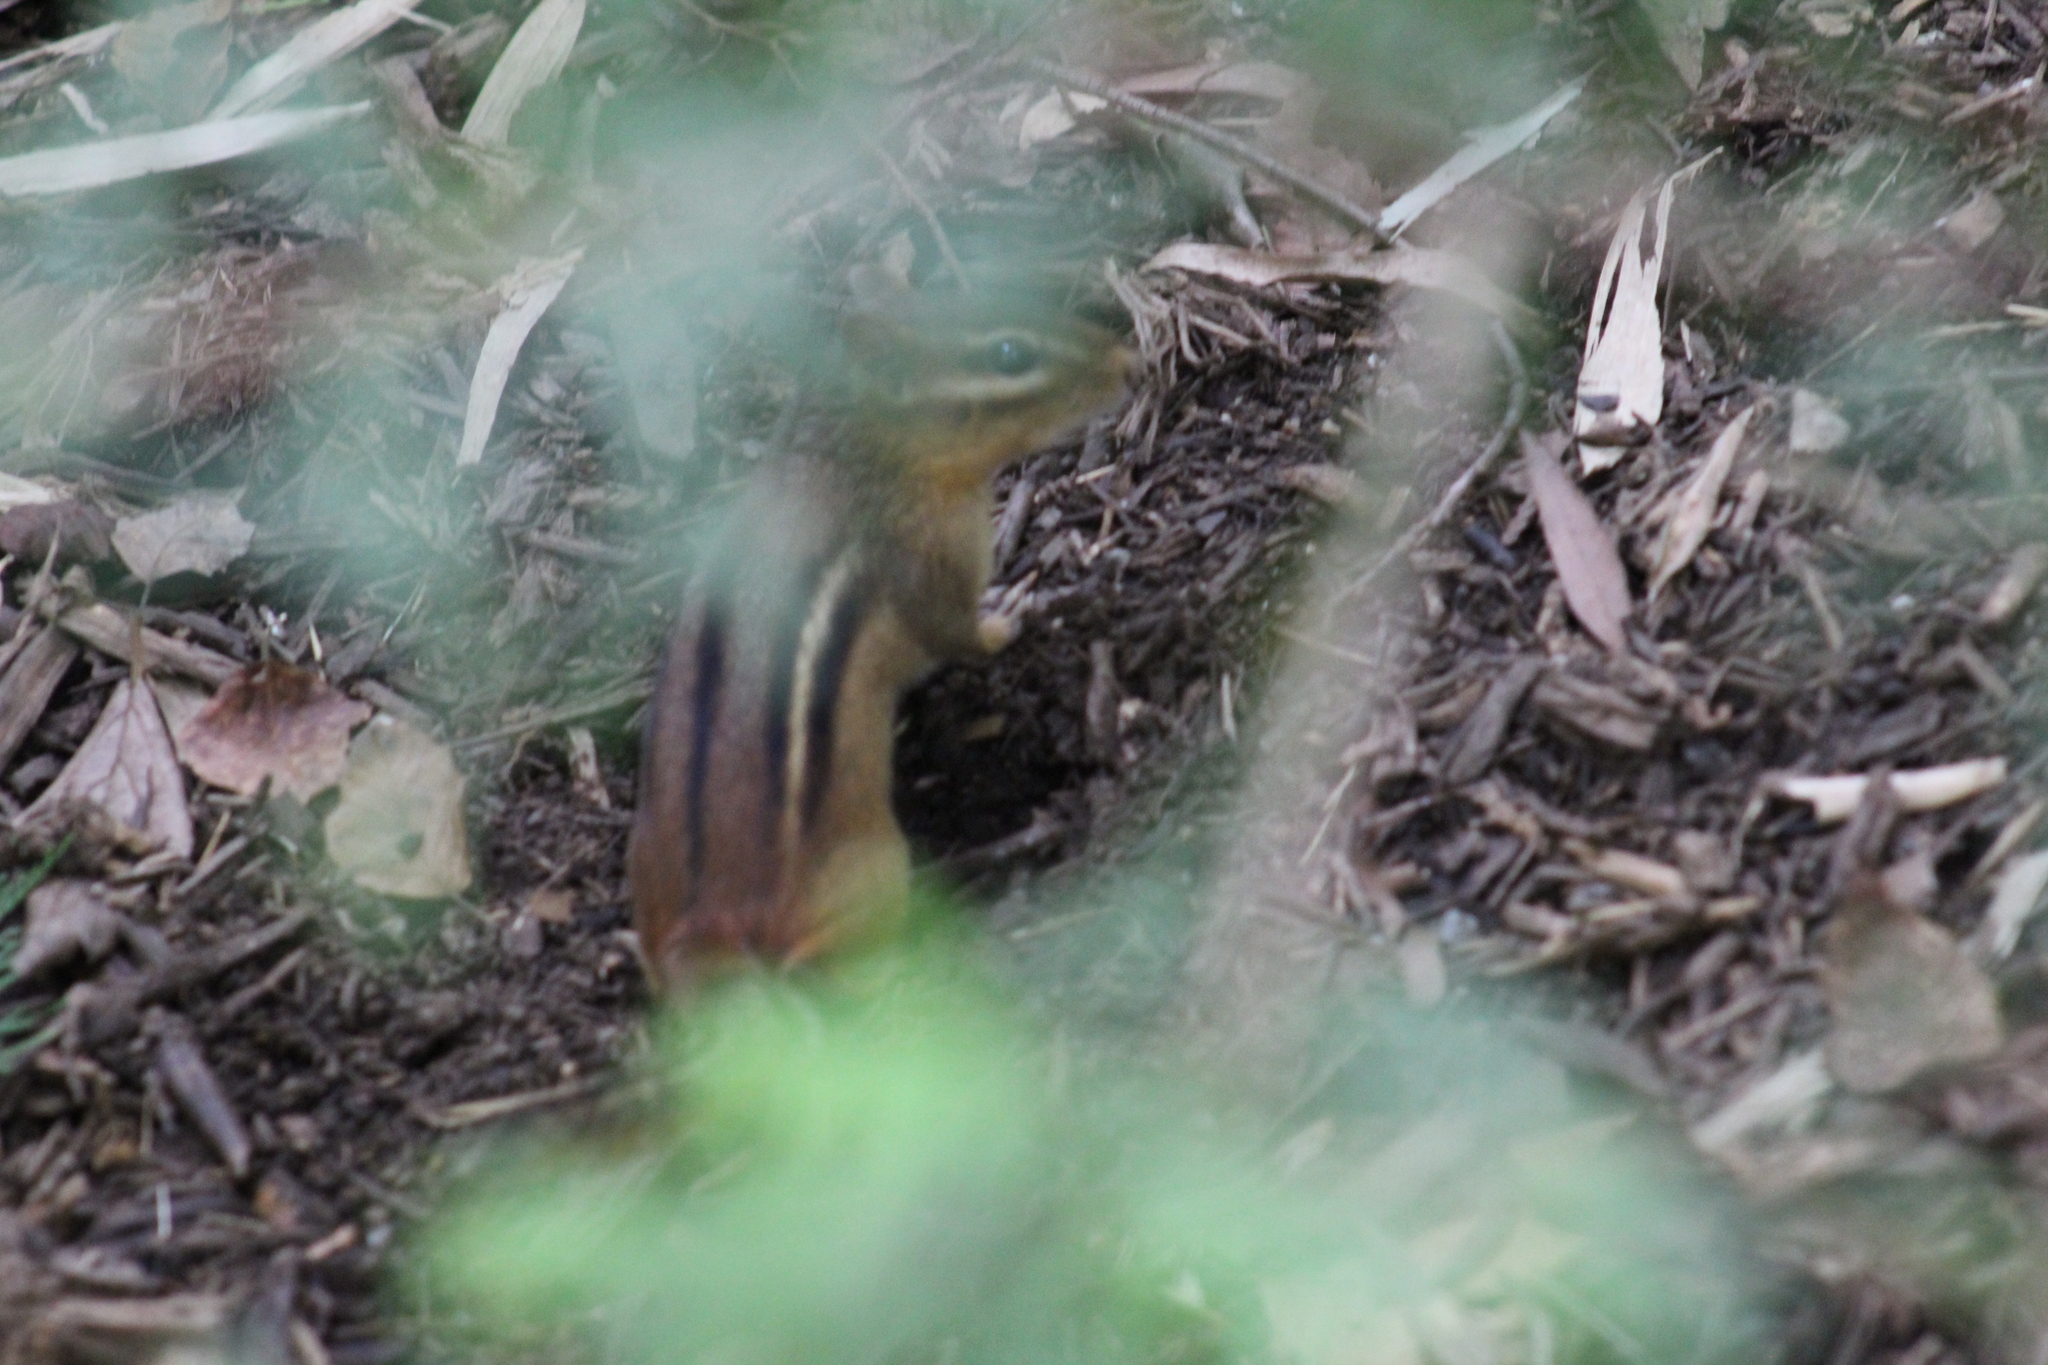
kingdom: Animalia
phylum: Chordata
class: Mammalia
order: Rodentia
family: Sciuridae
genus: Tamias
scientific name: Tamias striatus
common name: Eastern chipmunk
